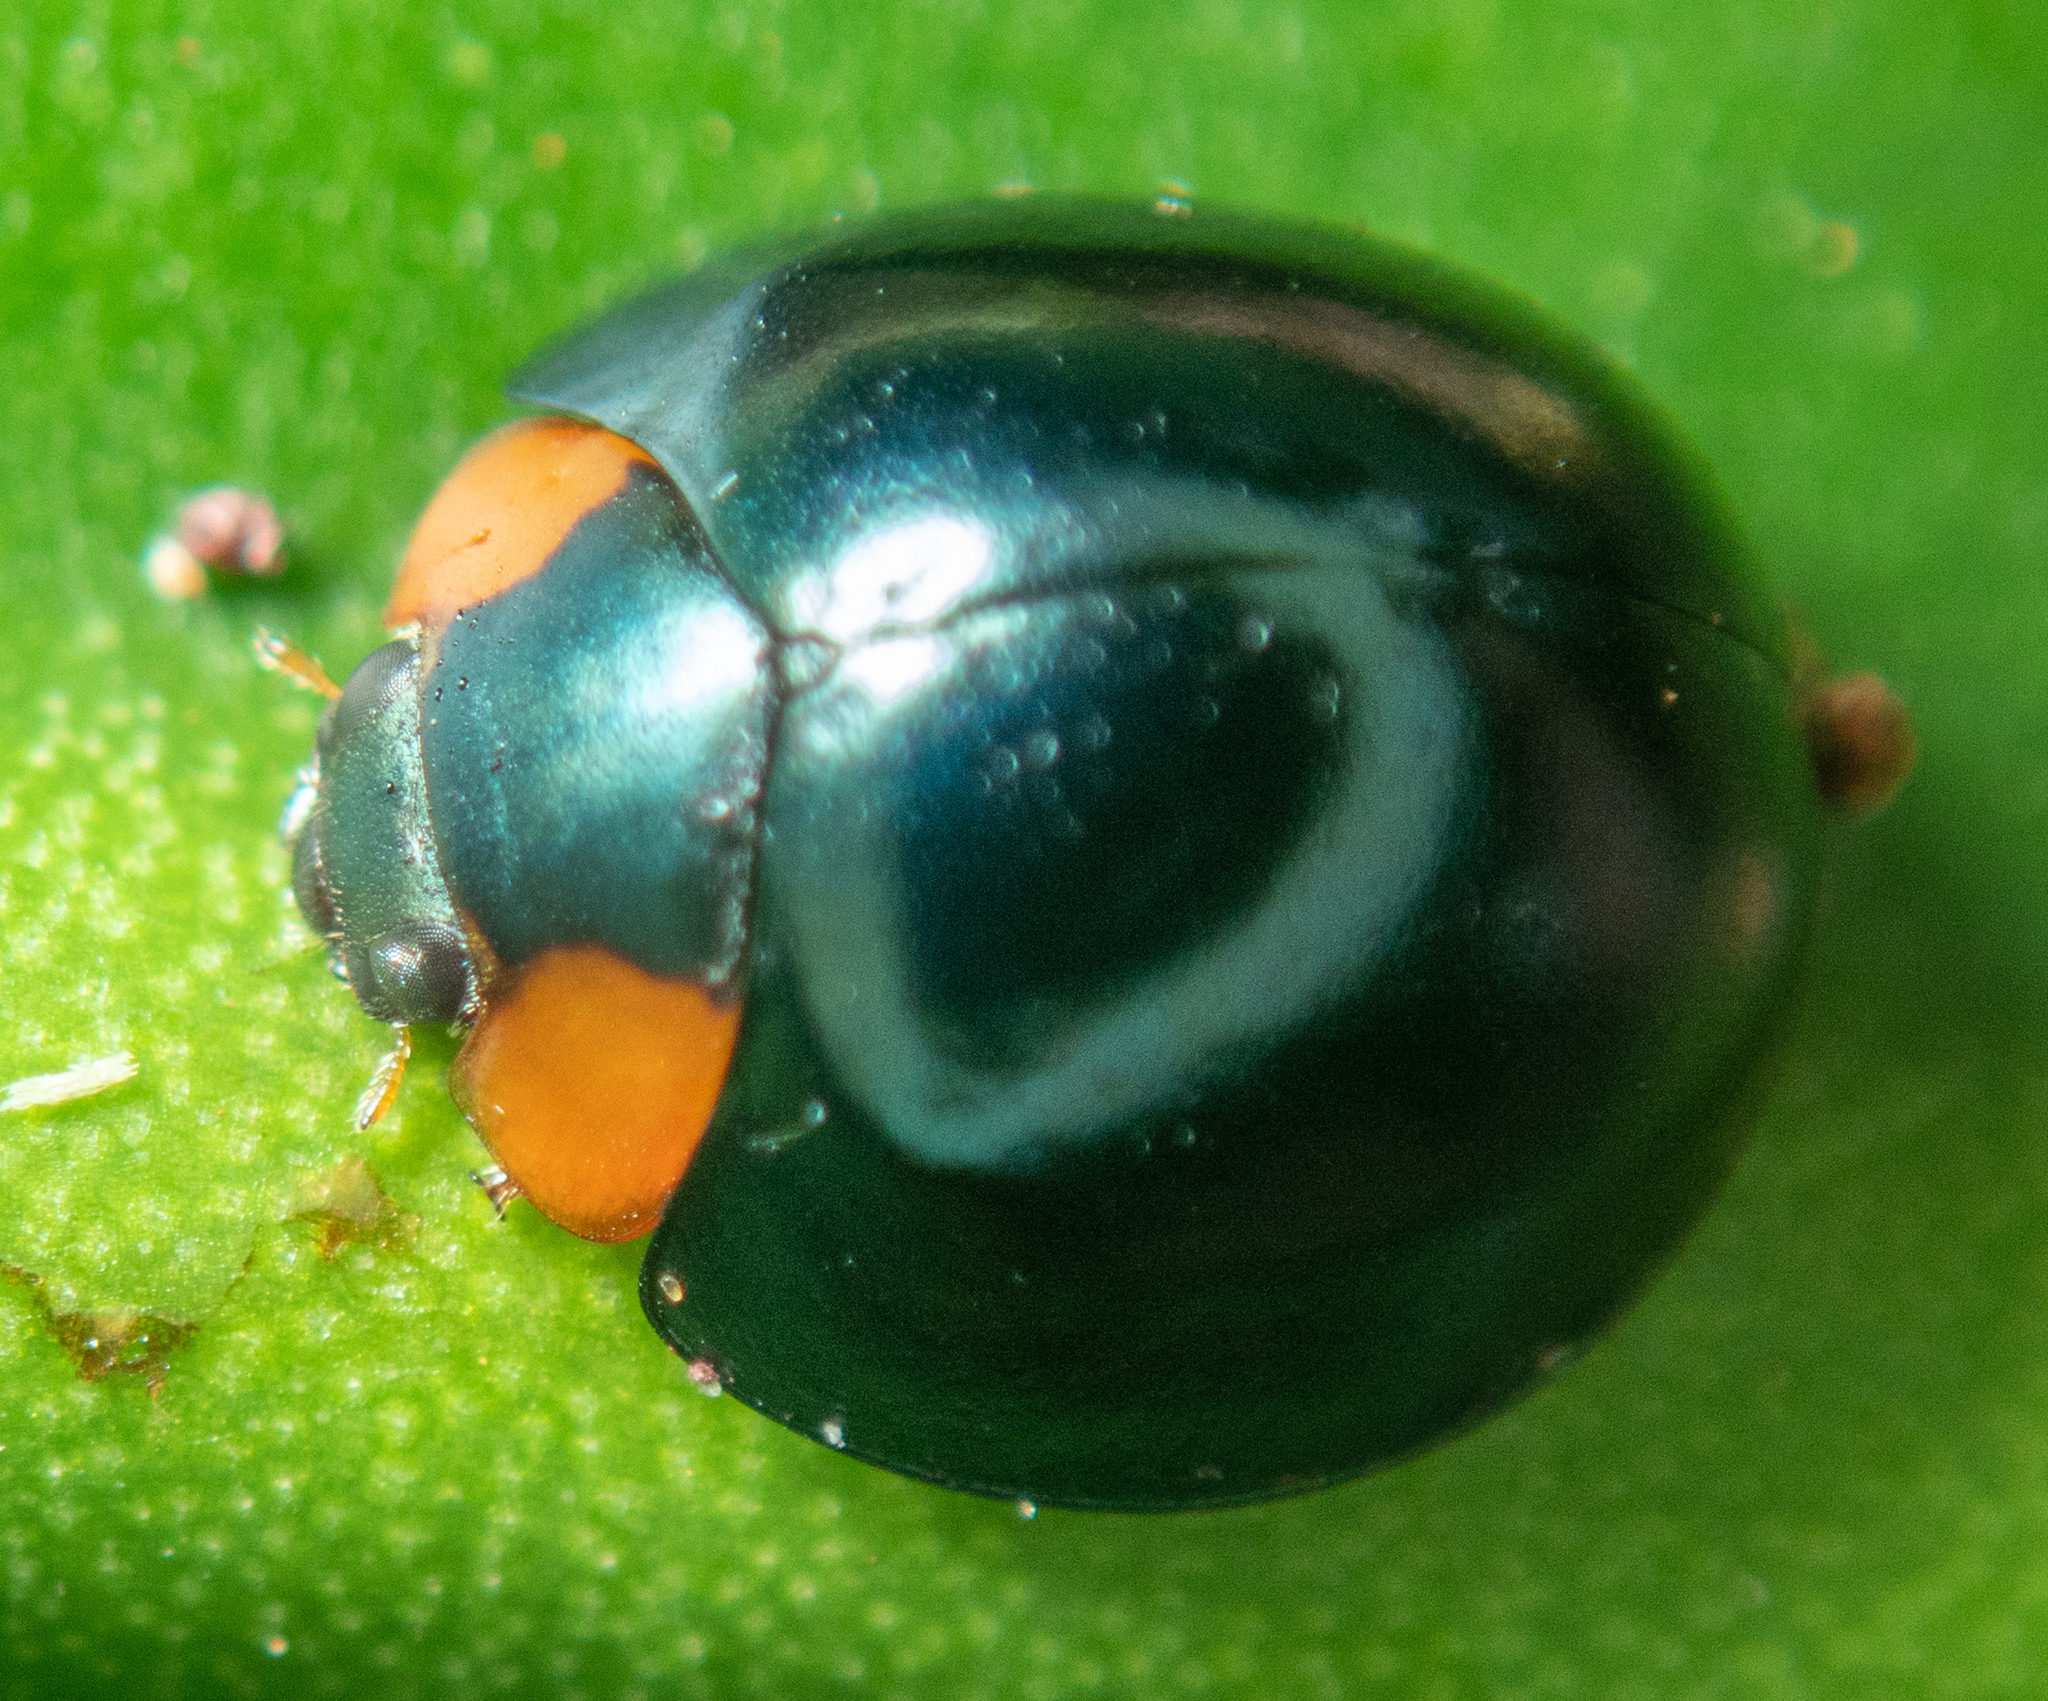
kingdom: Animalia
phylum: Arthropoda
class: Insecta
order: Coleoptera
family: Coccinellidae
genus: Curinus
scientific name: Curinus coeruleus
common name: Ladybird beetle
